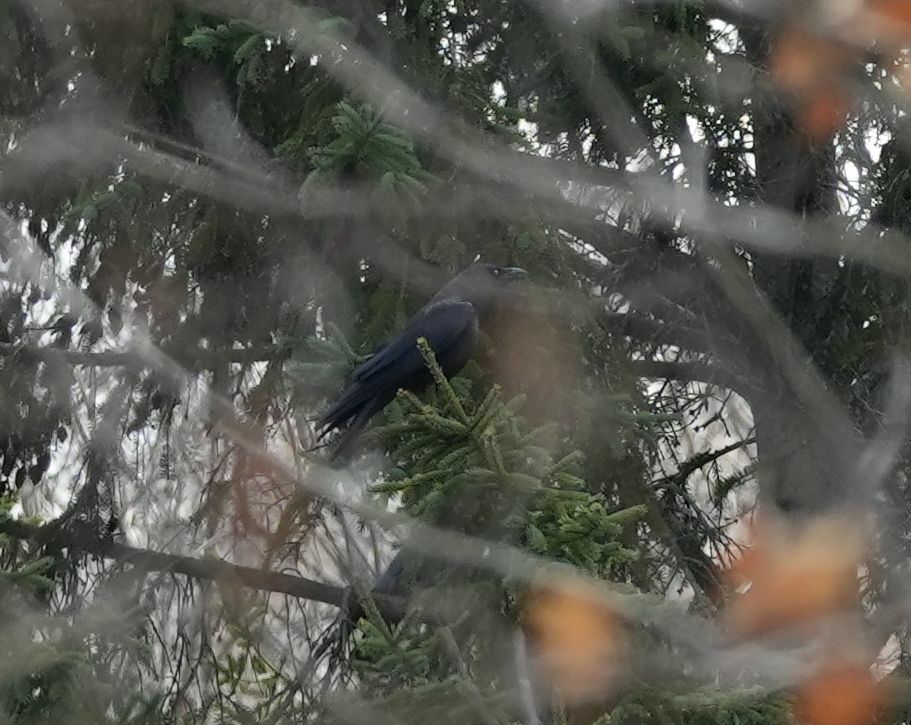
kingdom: Animalia
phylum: Chordata
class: Aves
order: Passeriformes
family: Corvidae
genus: Corvus
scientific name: Corvus brachyrhynchos
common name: American crow
